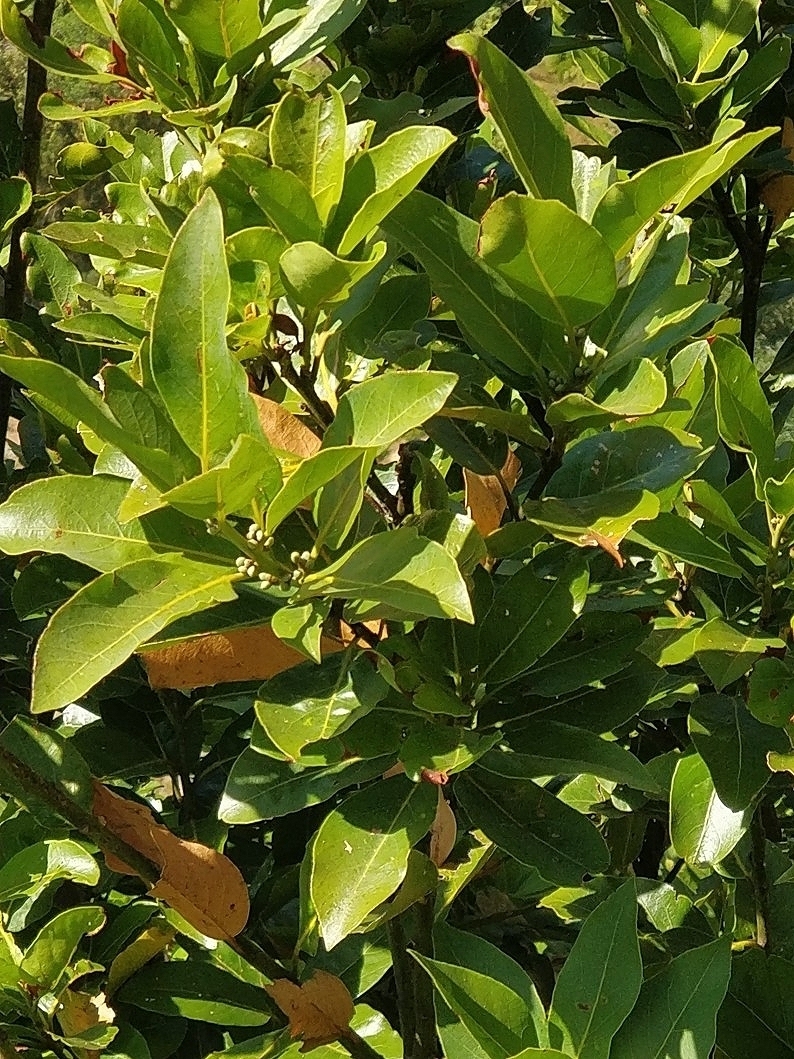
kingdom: Plantae
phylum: Tracheophyta
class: Magnoliopsida
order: Laurales
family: Lauraceae
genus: Laurus
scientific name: Laurus novocanariensis
